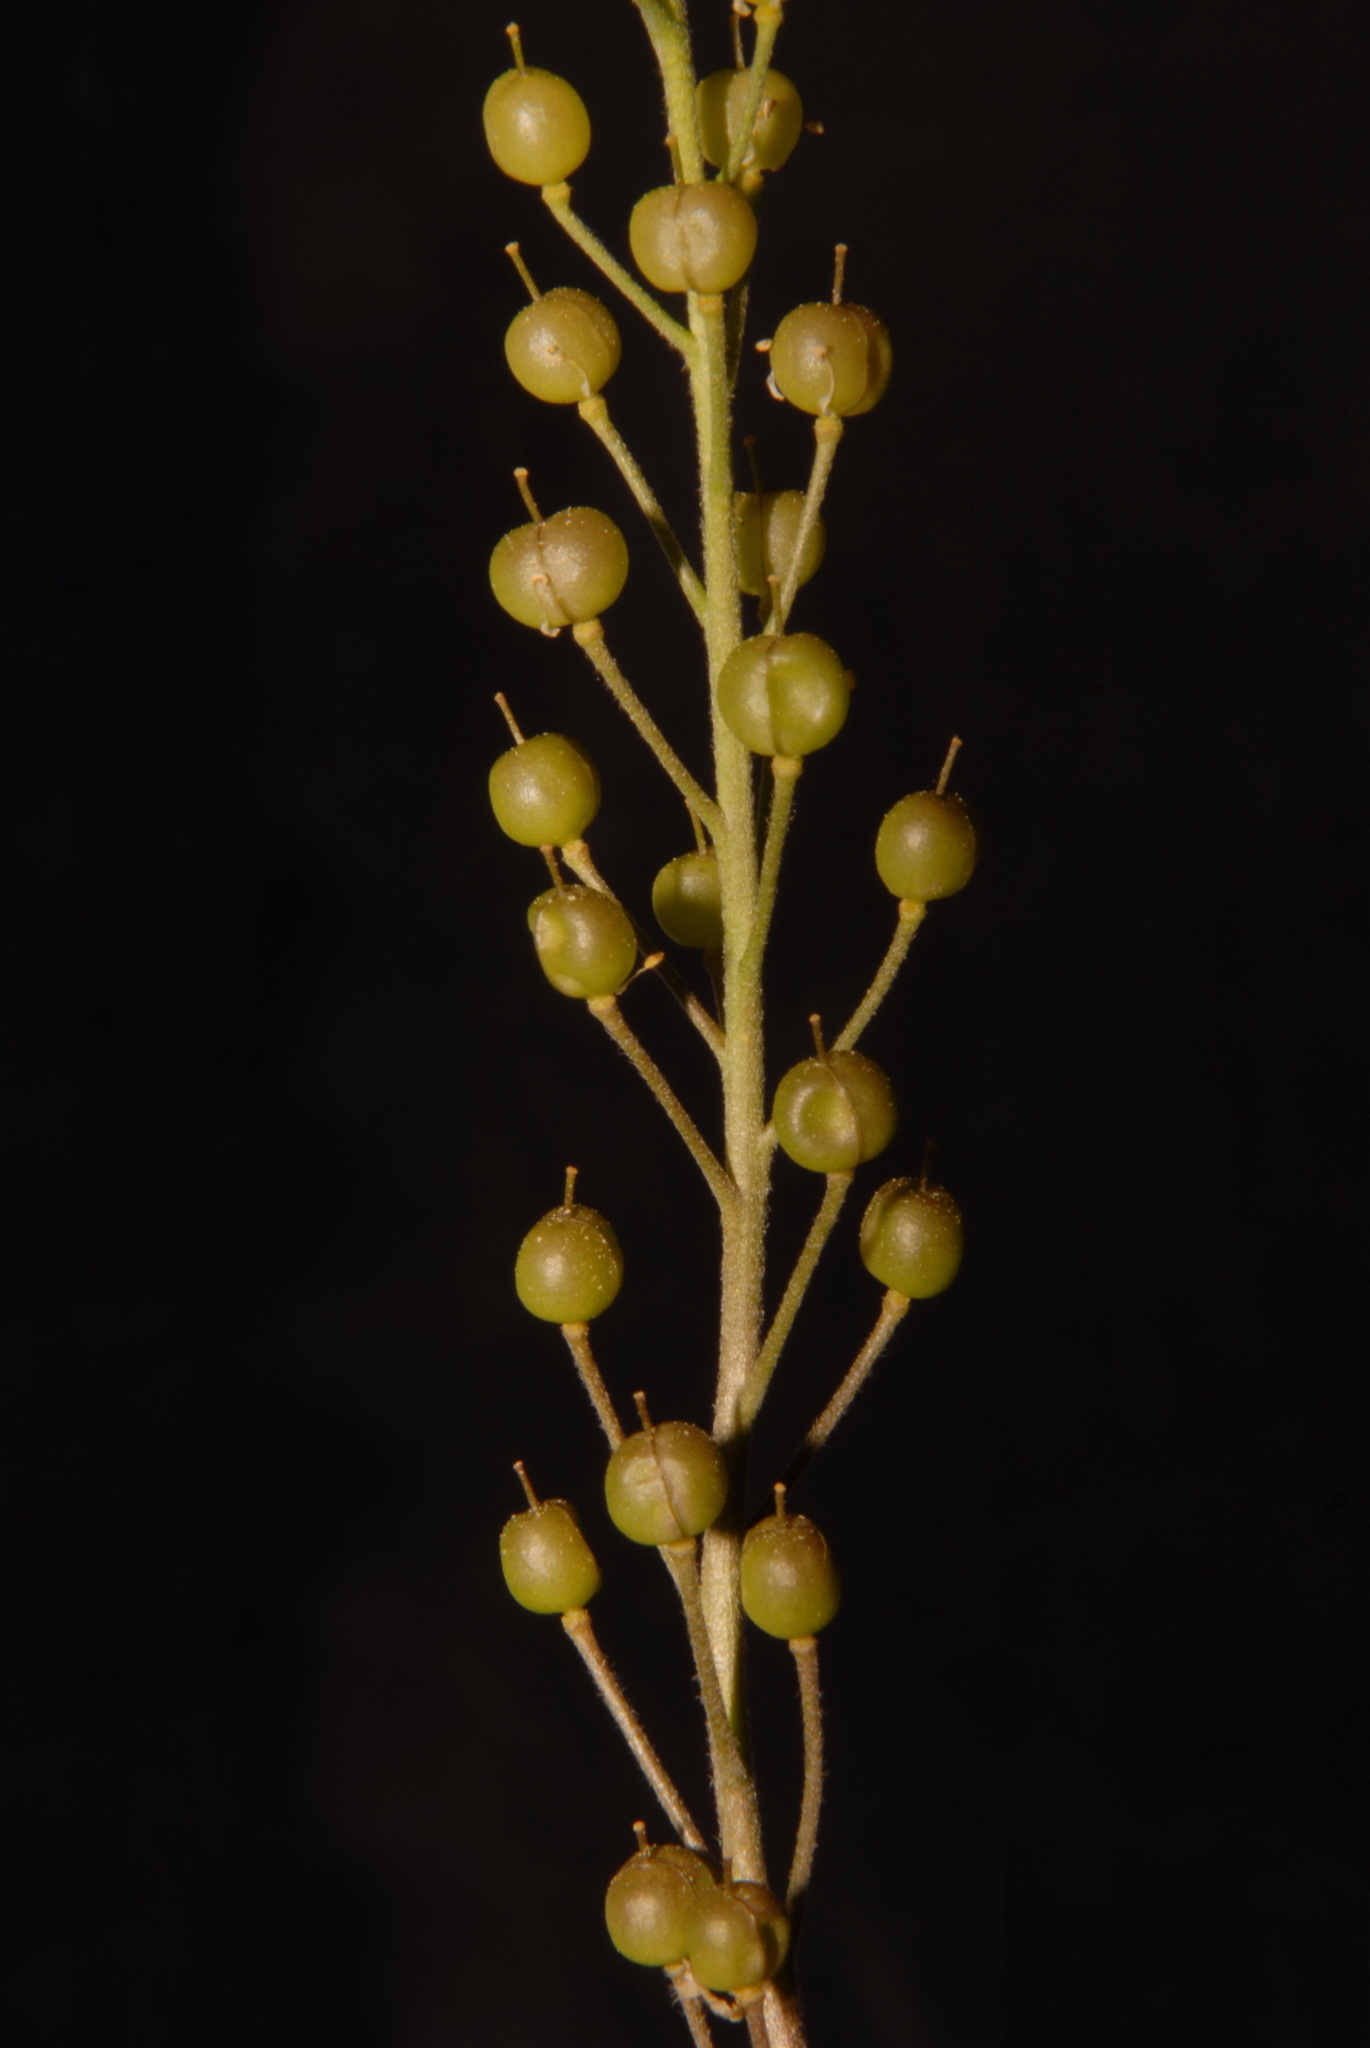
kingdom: Plantae
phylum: Tracheophyta
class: Magnoliopsida
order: Brassicales
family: Brassicaceae
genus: Paysonia
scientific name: Paysonia lyrata
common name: Lyrate bladderpod
